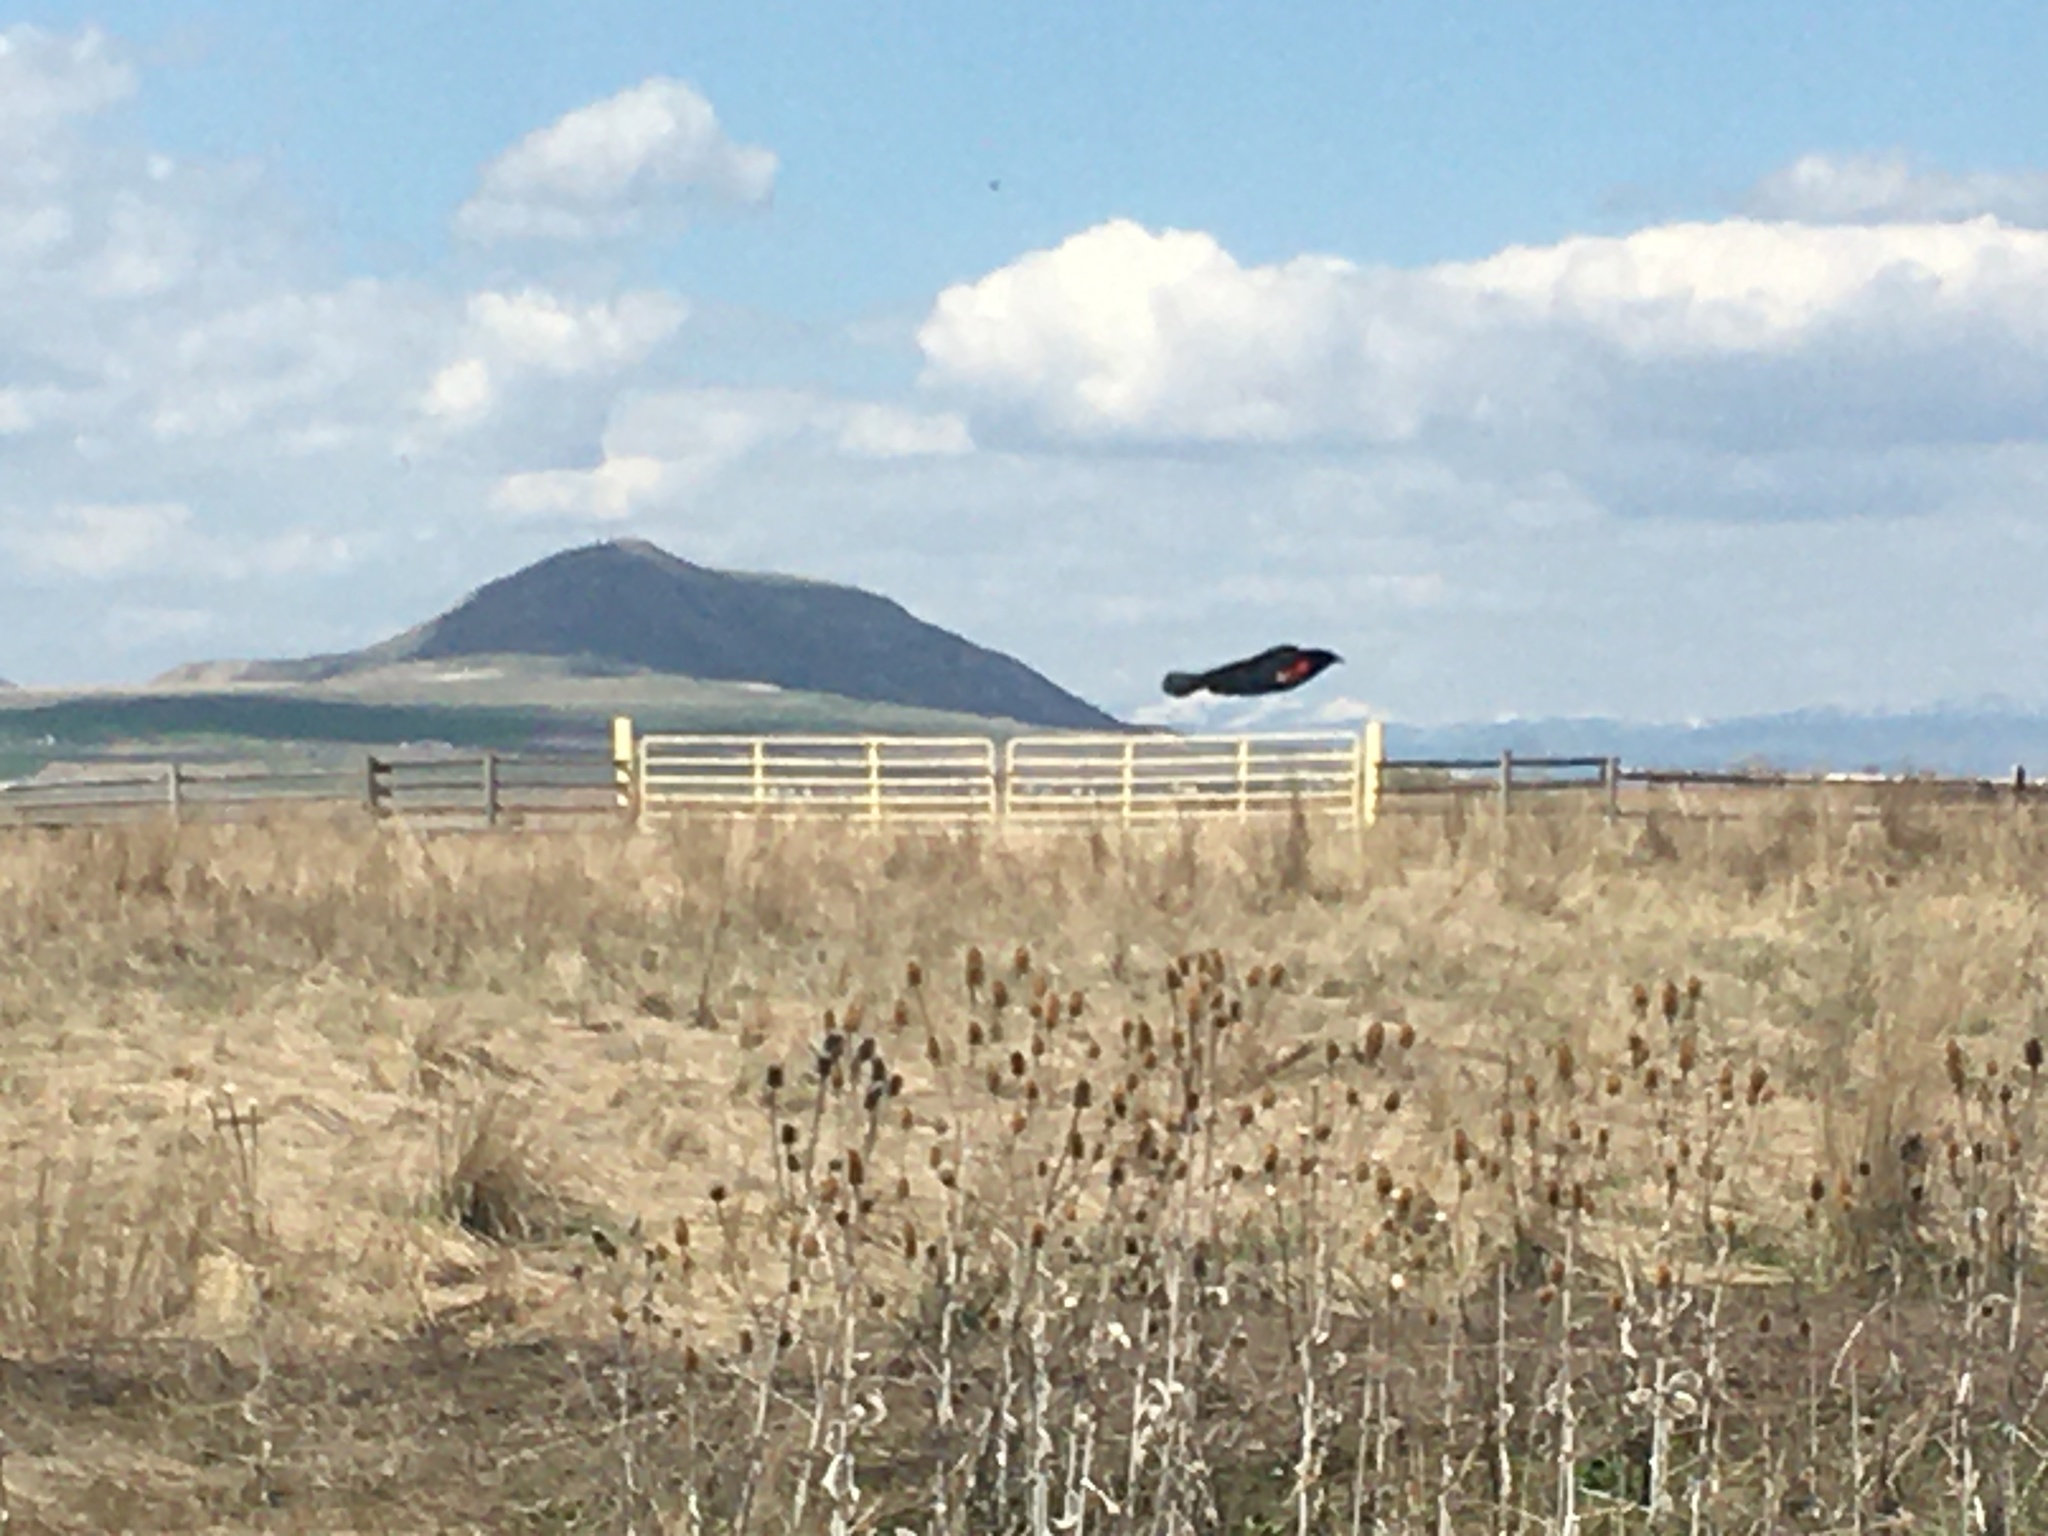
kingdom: Animalia
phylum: Chordata
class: Aves
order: Passeriformes
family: Icteridae
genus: Agelaius
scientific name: Agelaius phoeniceus
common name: Red-winged blackbird
